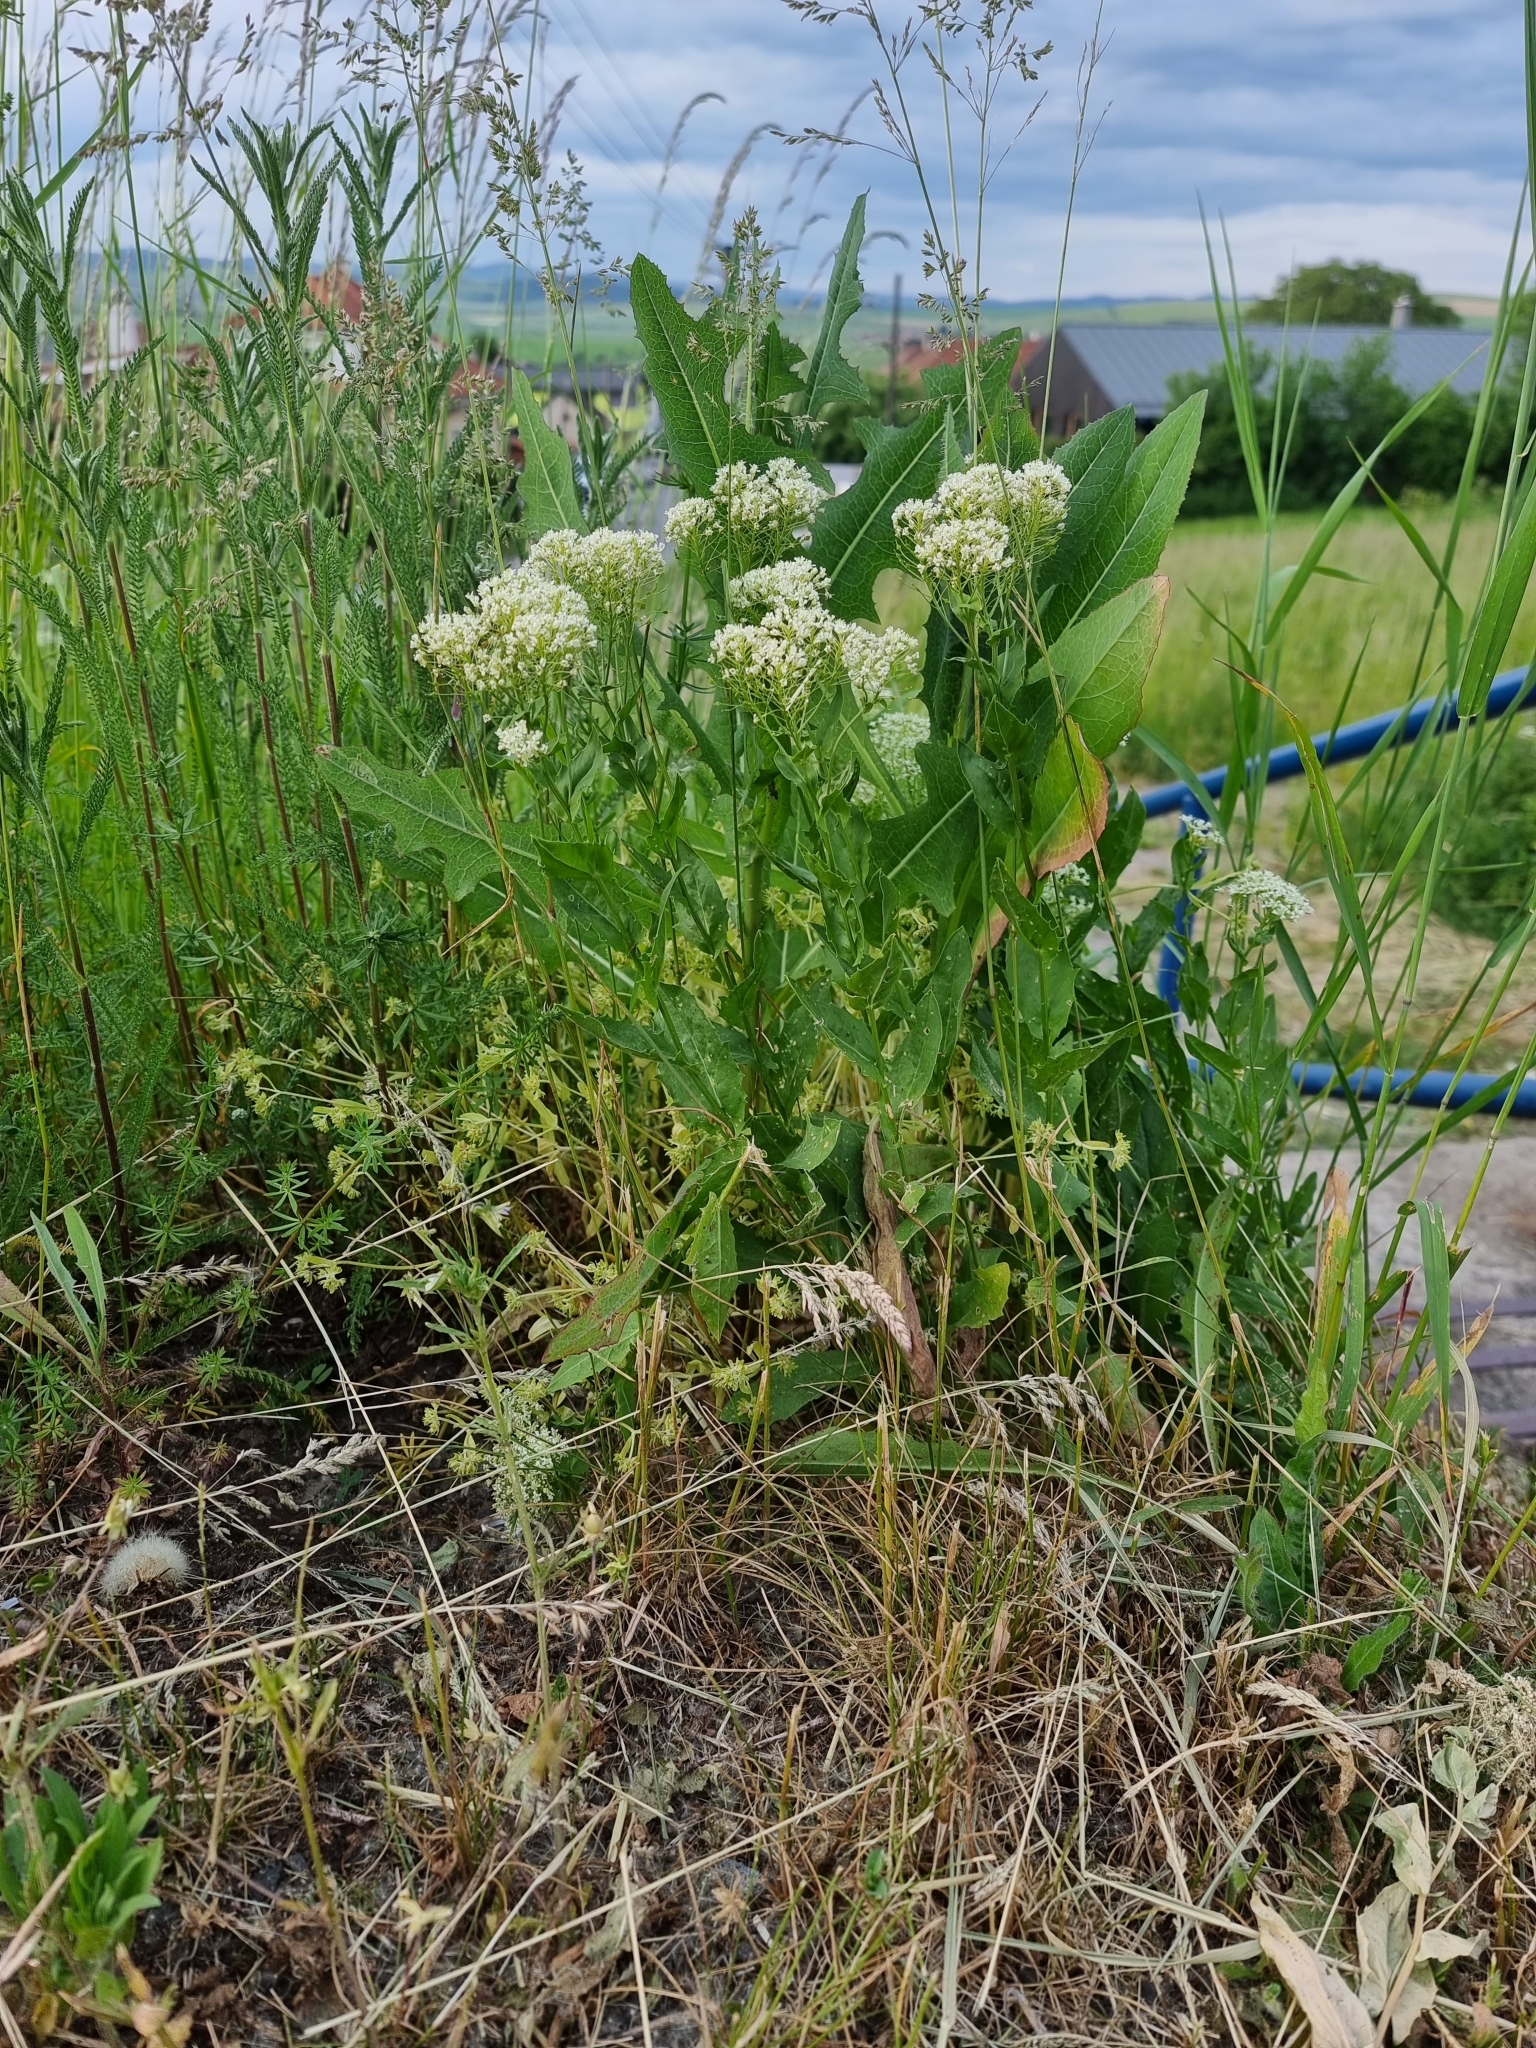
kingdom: Plantae
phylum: Tracheophyta
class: Magnoliopsida
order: Brassicales
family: Brassicaceae
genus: Lepidium
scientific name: Lepidium draba
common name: Hoary cress
